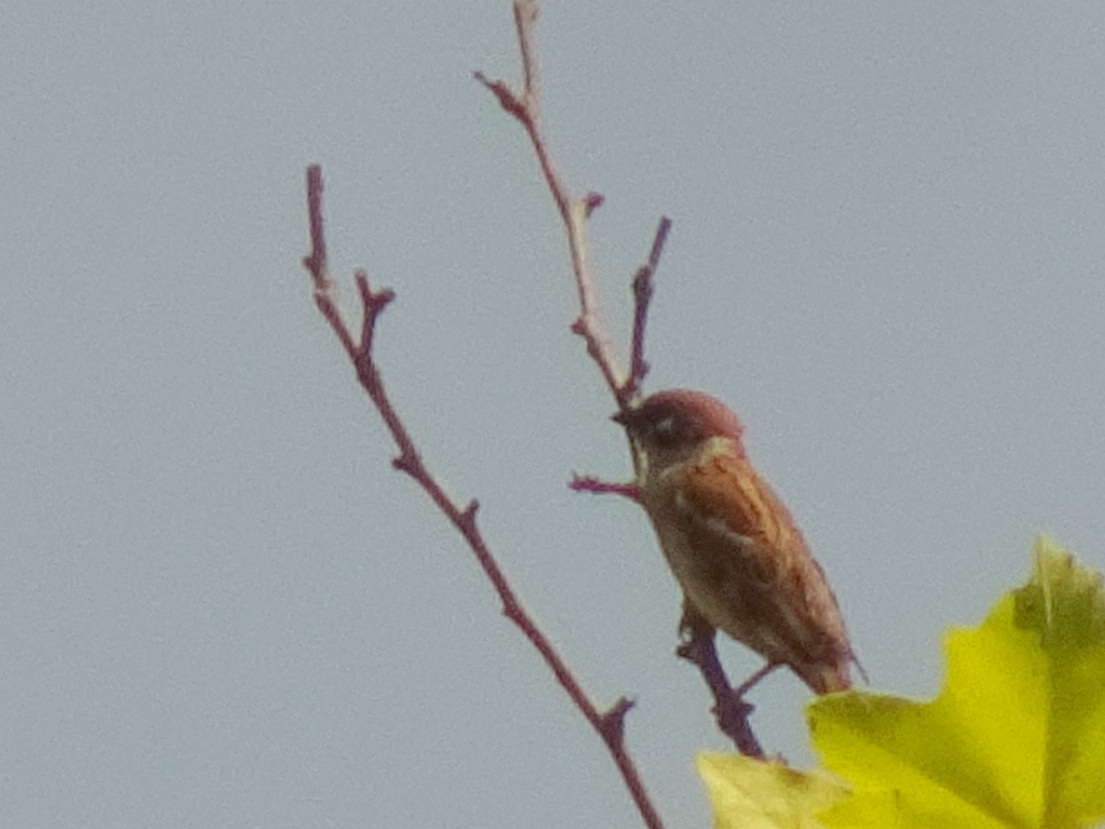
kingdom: Animalia
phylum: Chordata
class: Aves
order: Passeriformes
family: Passeridae
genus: Passer
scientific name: Passer montanus
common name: Eurasian tree sparrow
